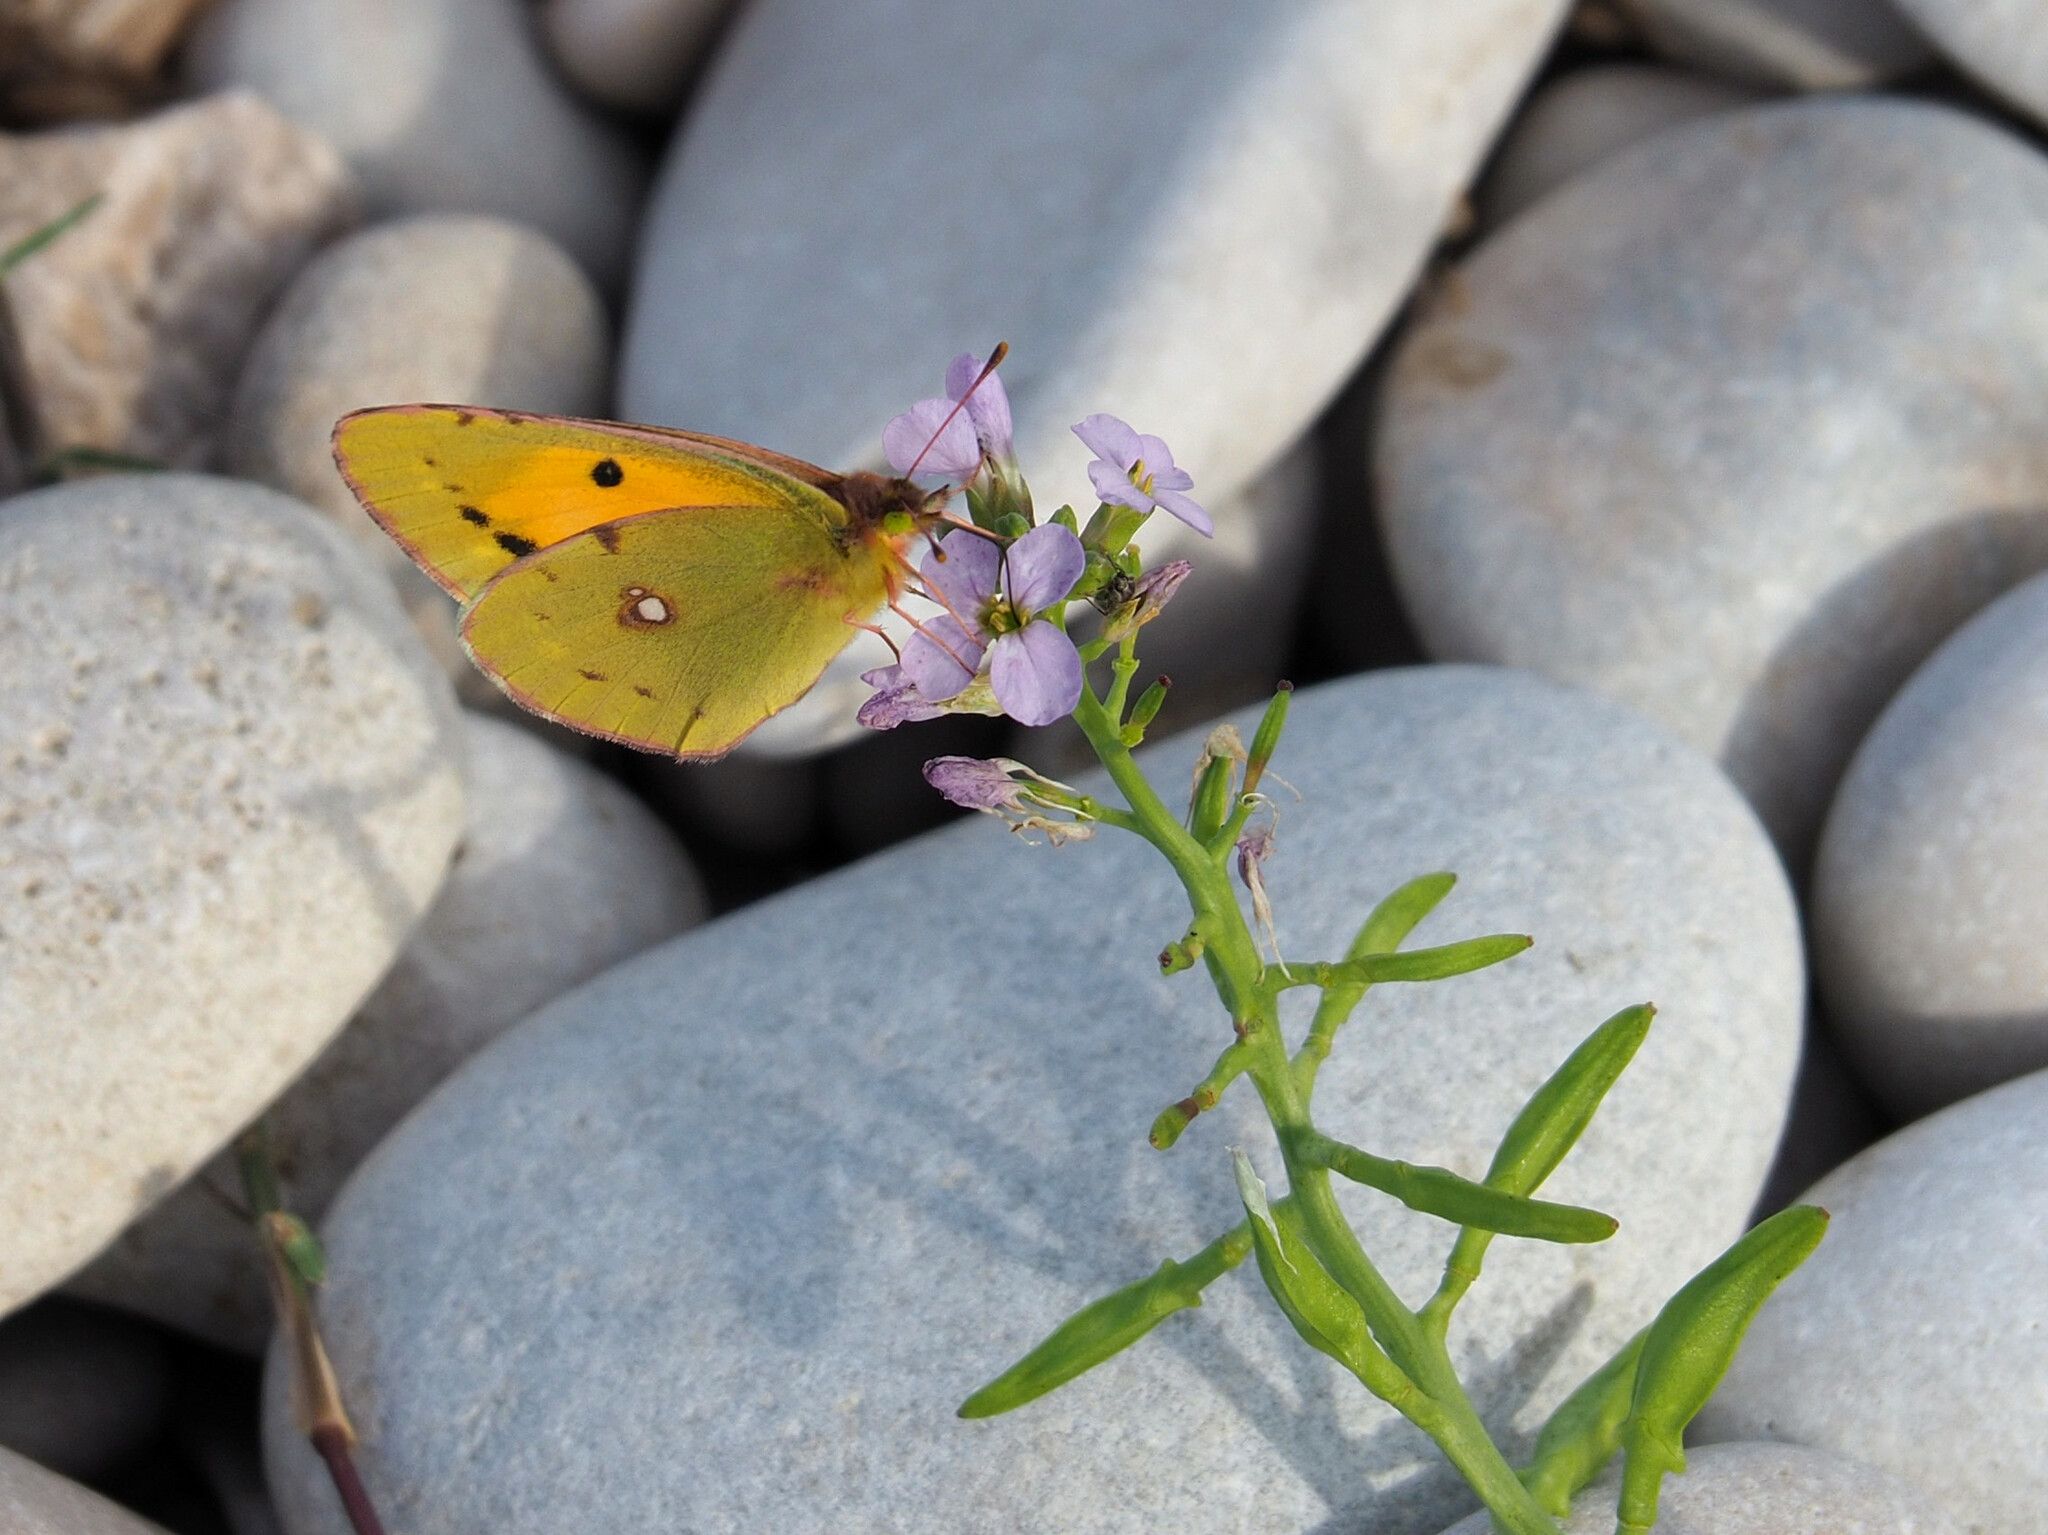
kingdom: Animalia
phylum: Arthropoda
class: Insecta
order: Lepidoptera
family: Pieridae
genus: Colias
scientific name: Colias croceus
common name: Clouded yellow
